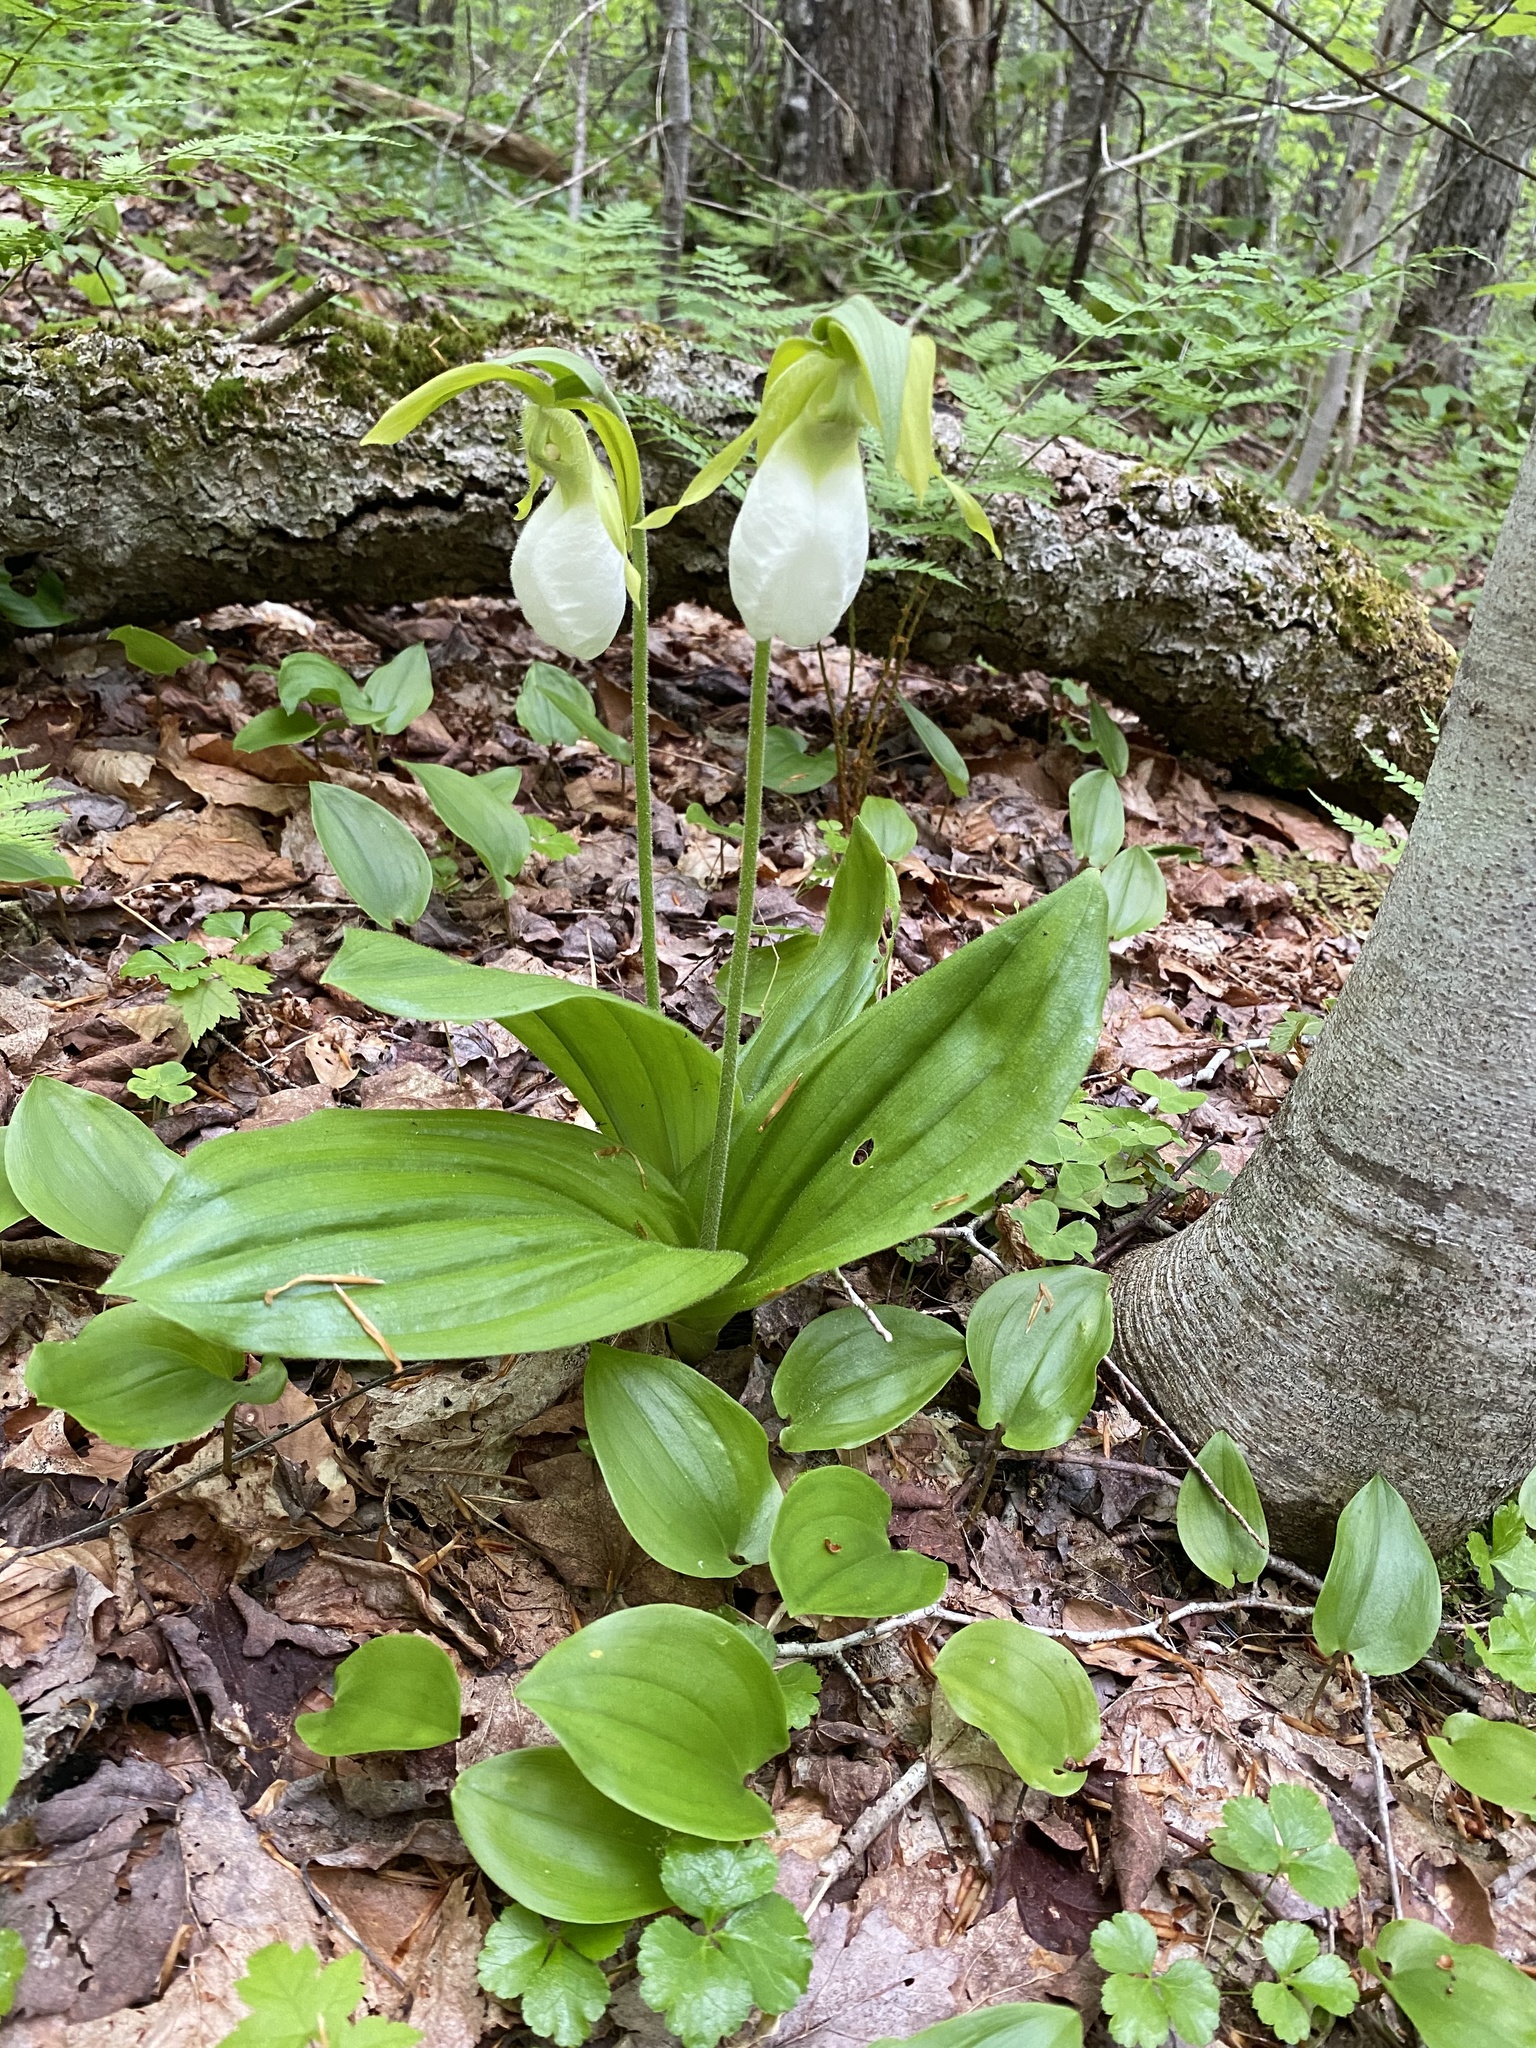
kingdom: Plantae
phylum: Tracheophyta
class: Liliopsida
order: Asparagales
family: Orchidaceae
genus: Cypripedium
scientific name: Cypripedium acaule
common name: Pink lady's-slipper
